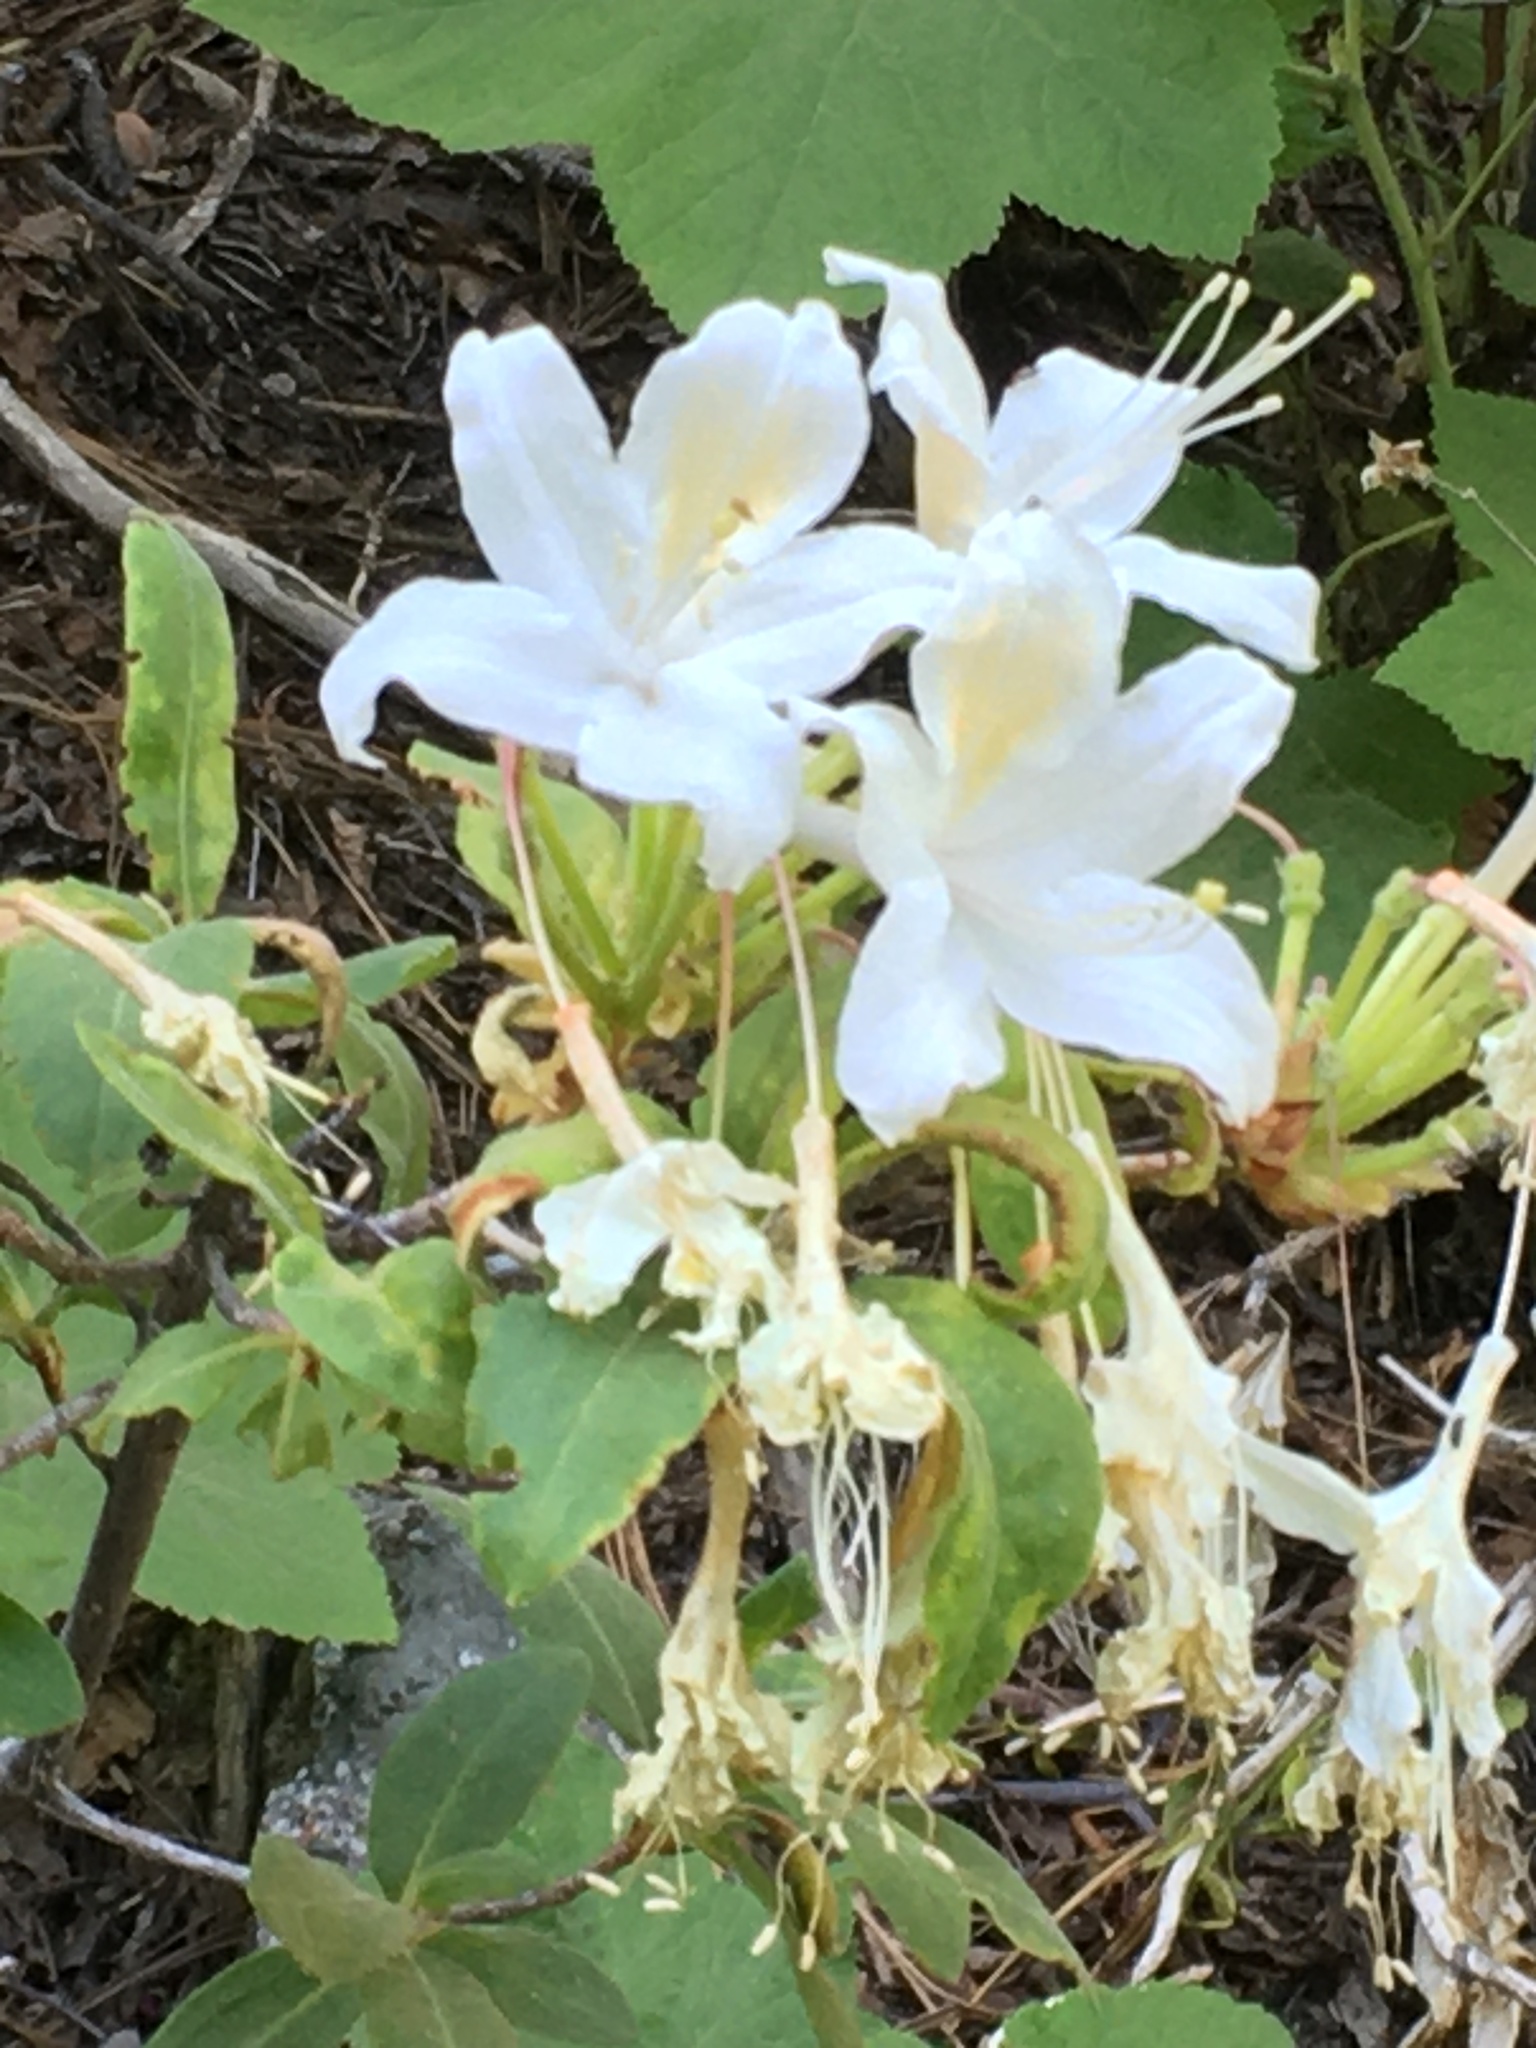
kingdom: Plantae
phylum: Tracheophyta
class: Magnoliopsida
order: Ericales
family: Ericaceae
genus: Rhododendron
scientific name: Rhododendron occidentale
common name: Western azalea
